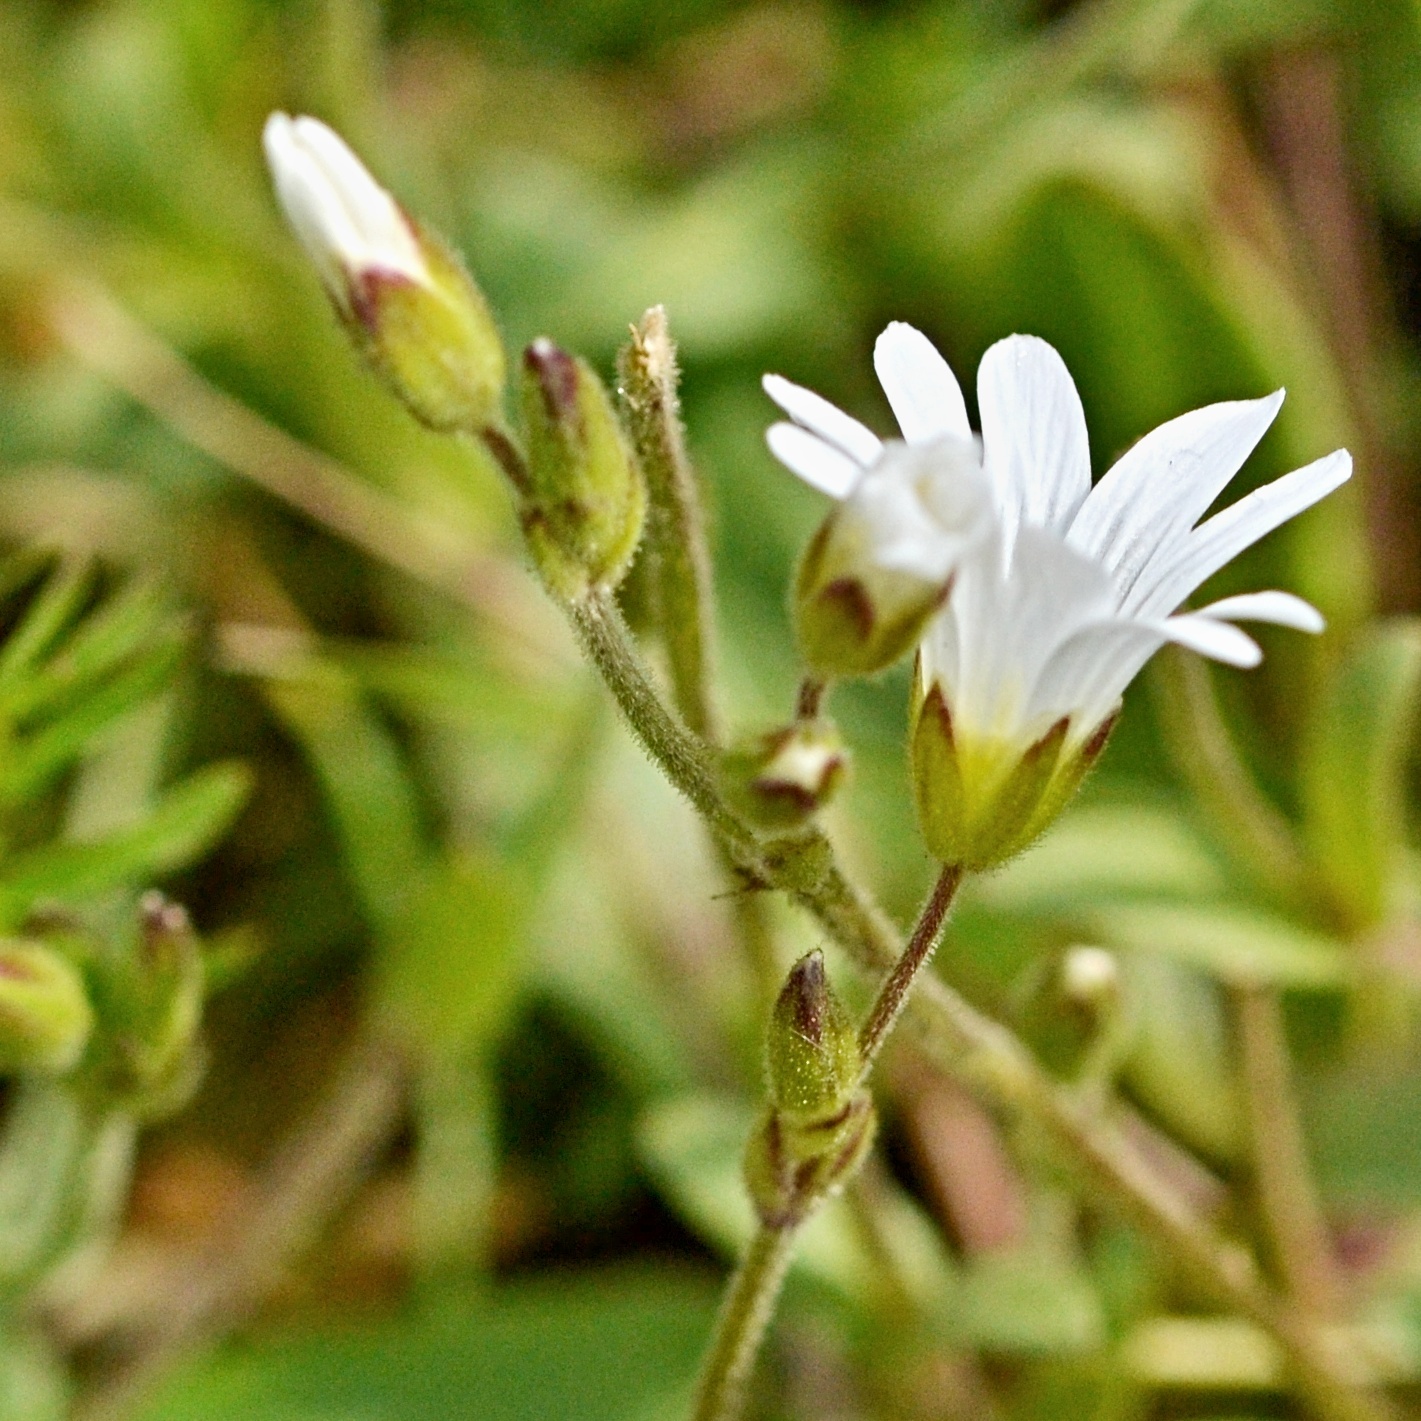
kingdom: Plantae
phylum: Tracheophyta
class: Magnoliopsida
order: Caryophyllales
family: Caryophyllaceae
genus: Cerastium
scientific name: Cerastium arvense
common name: Field mouse-ear
